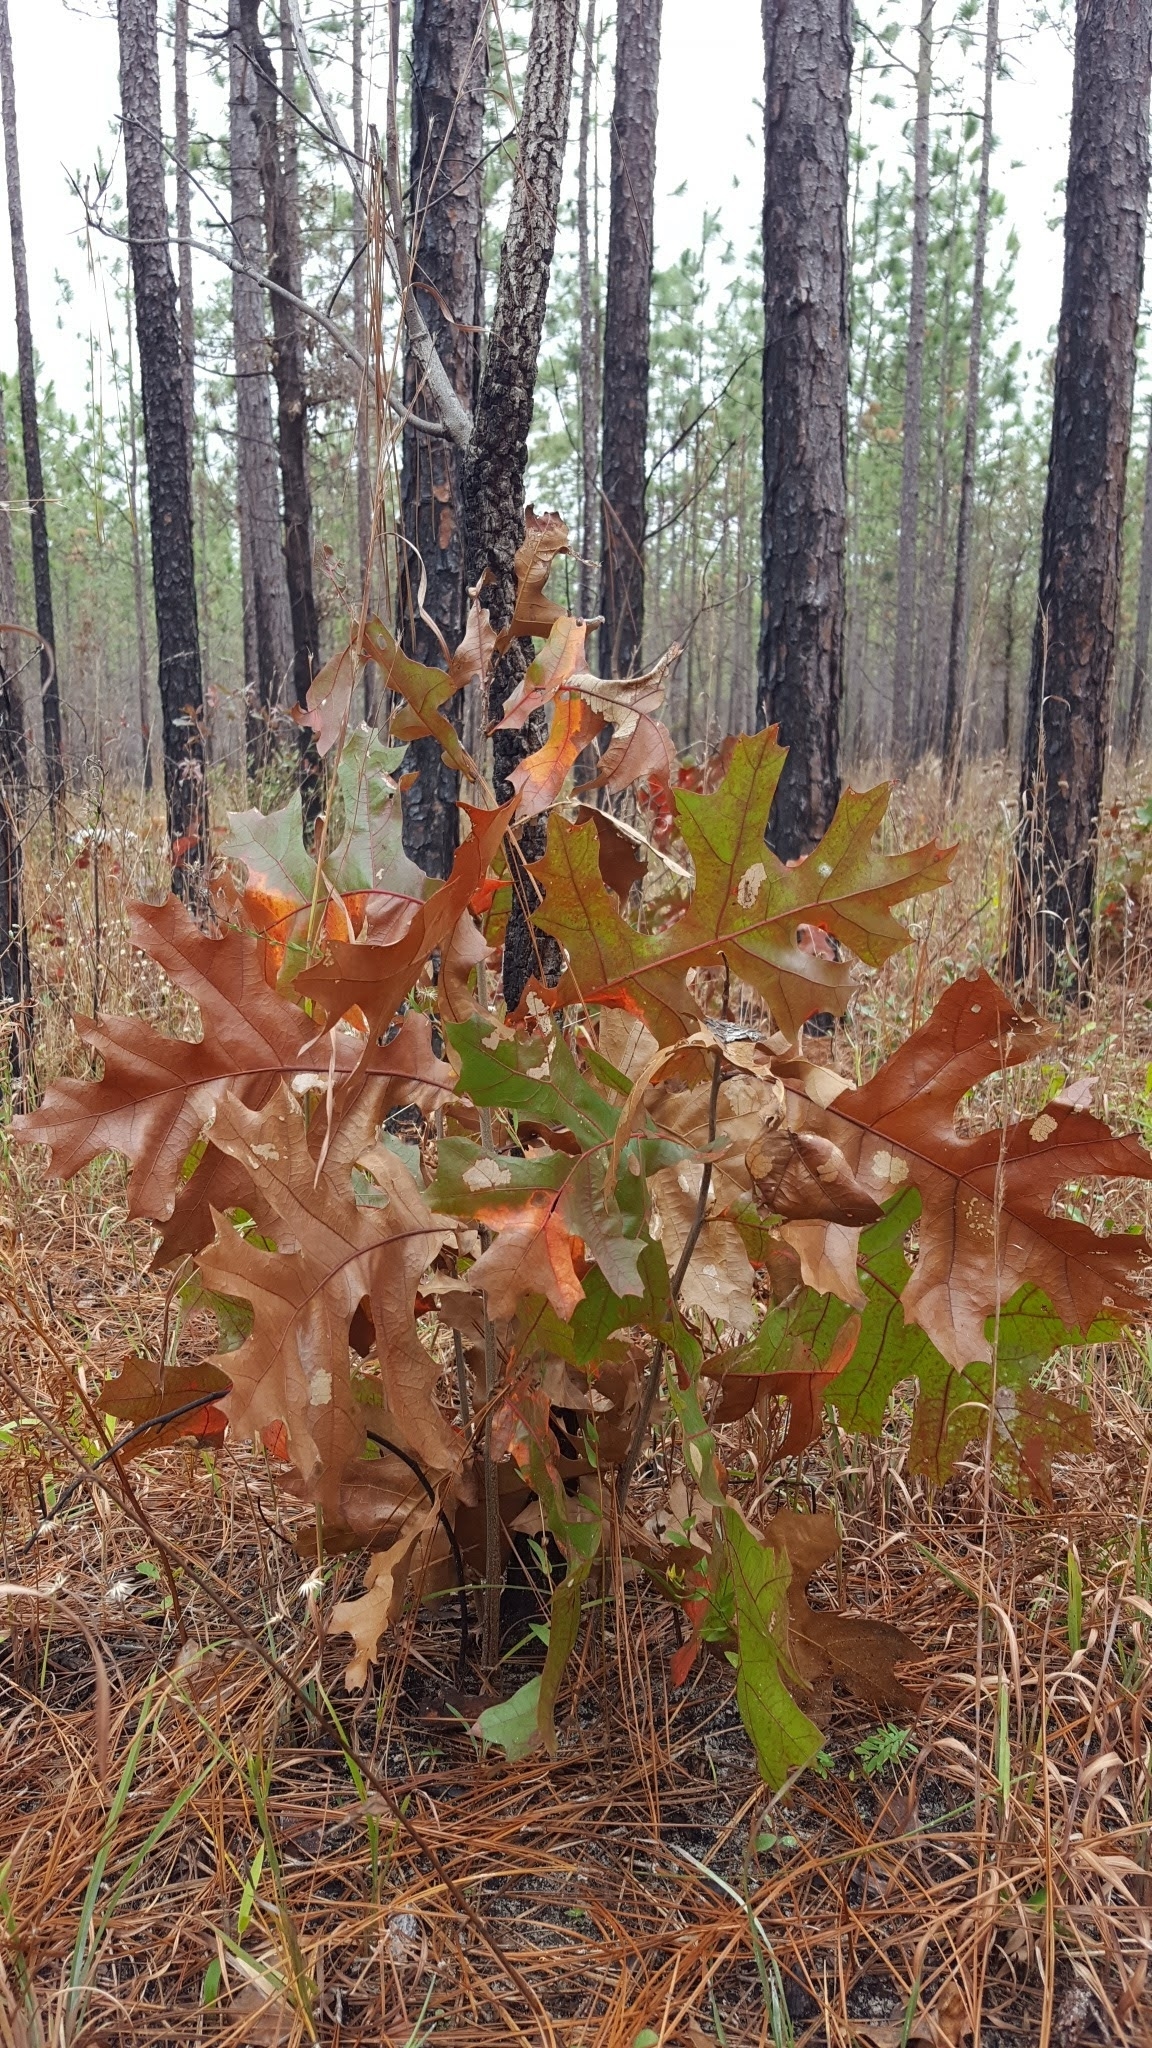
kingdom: Plantae
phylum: Tracheophyta
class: Magnoliopsida
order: Fagales
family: Fagaceae
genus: Quercus
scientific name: Quercus laevis
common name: Turkey oak
